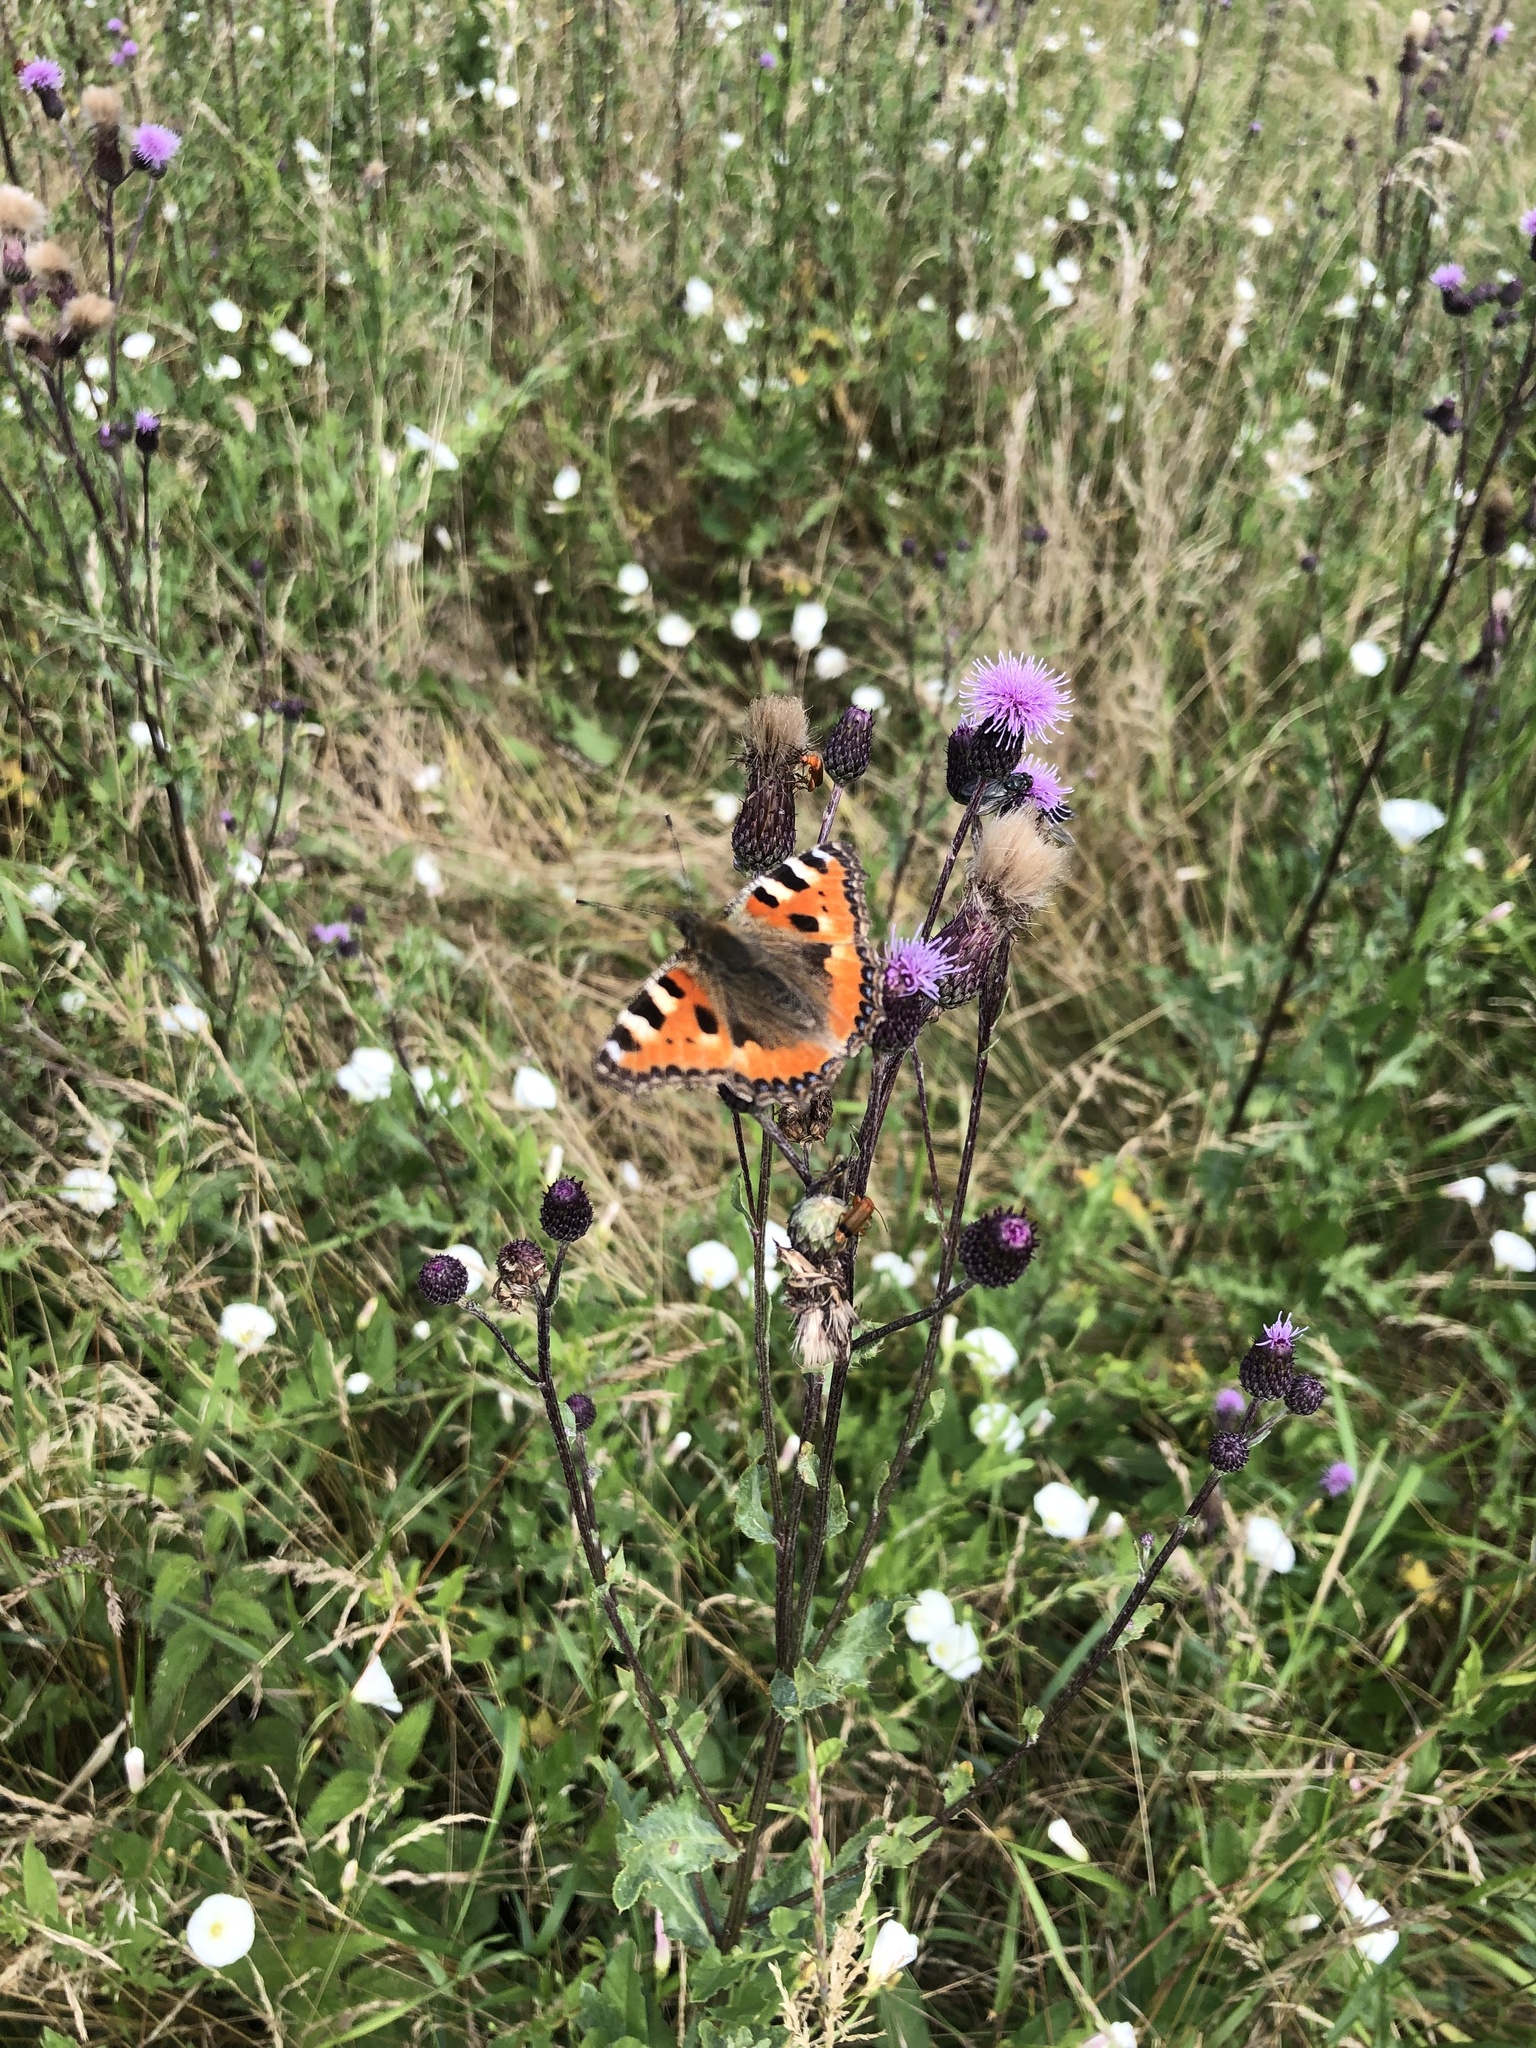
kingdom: Animalia
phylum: Arthropoda
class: Insecta
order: Lepidoptera
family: Nymphalidae
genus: Aglais
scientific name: Aglais urticae
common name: Small tortoiseshell
